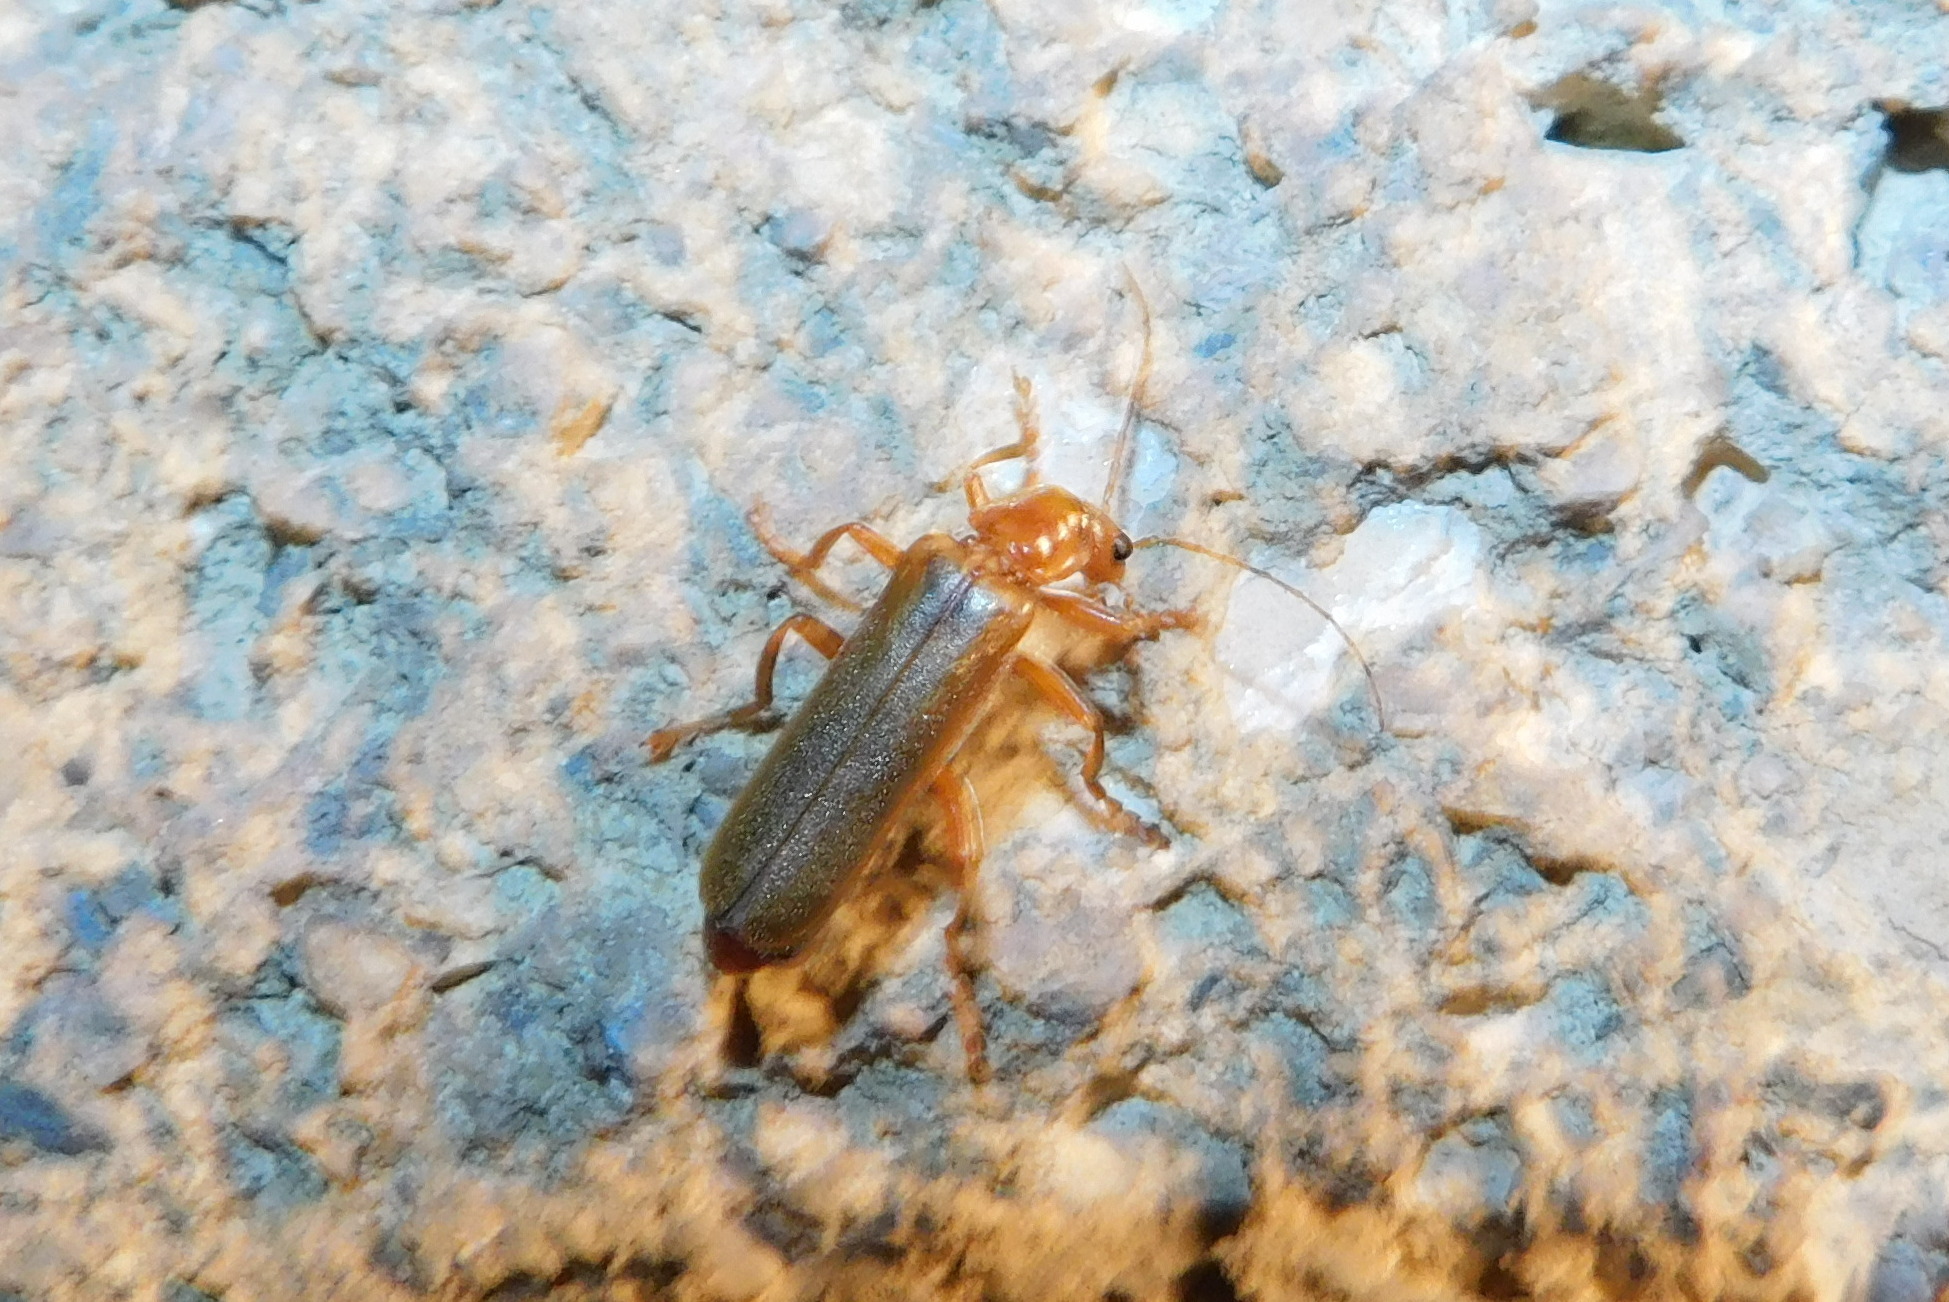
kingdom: Animalia
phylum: Arthropoda
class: Insecta
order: Coleoptera
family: Cantharidae
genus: Cantharis
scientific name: Cantharis rufa
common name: Red-spotted soldier beetle
